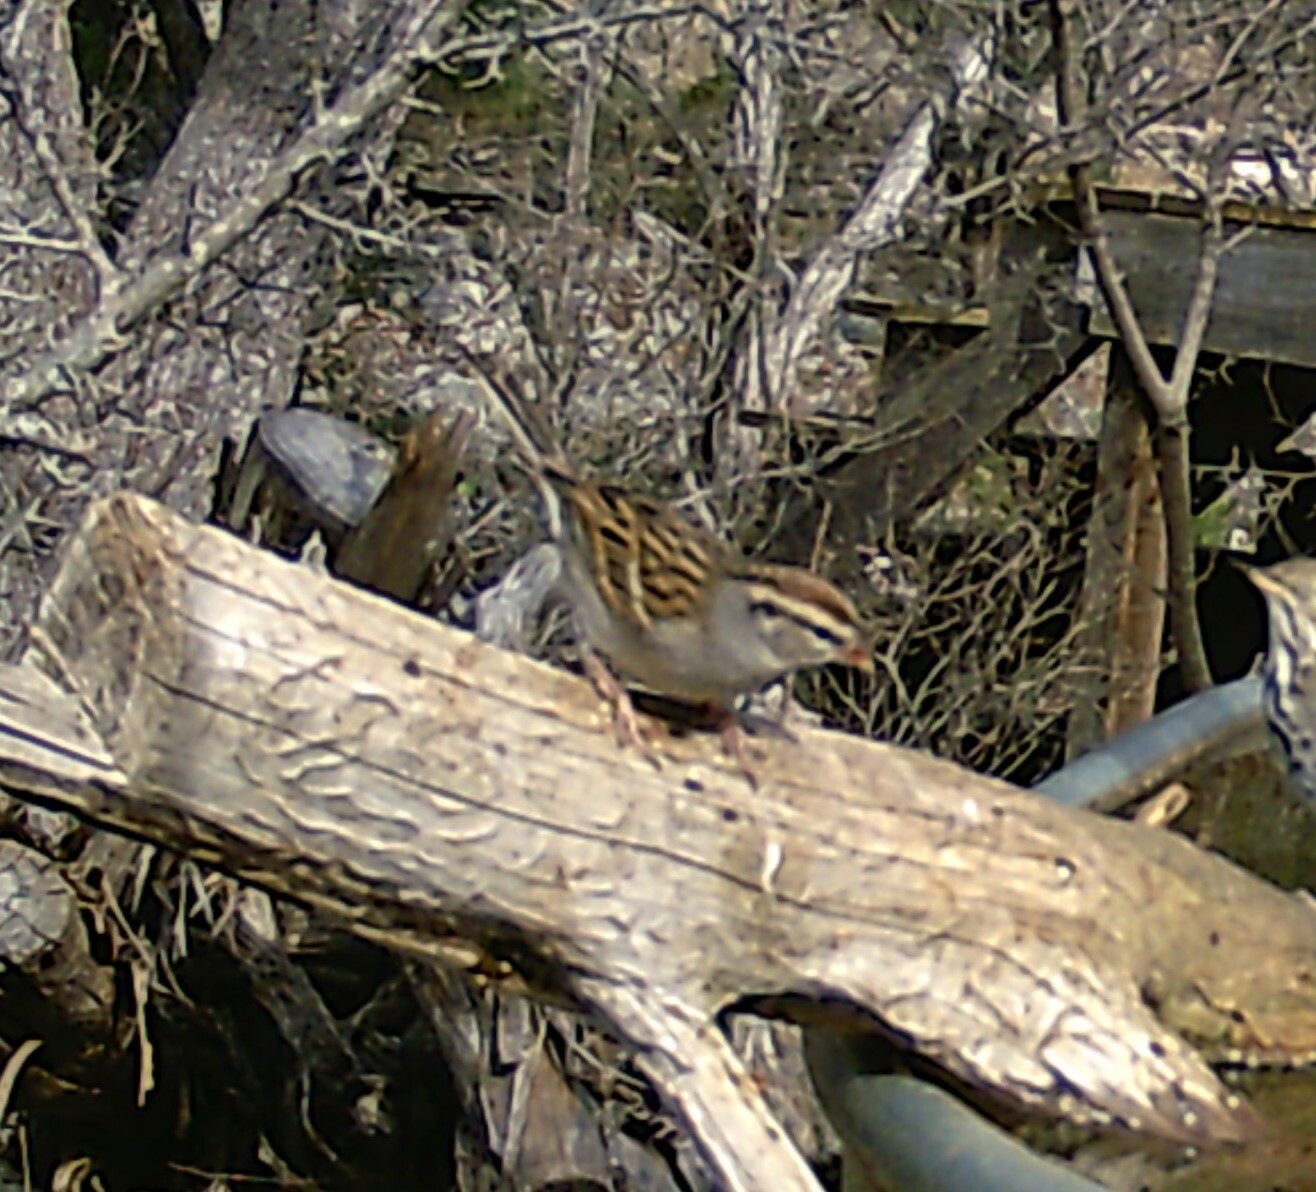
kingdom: Animalia
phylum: Chordata
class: Aves
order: Passeriformes
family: Passerellidae
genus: Spizella
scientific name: Spizella passerina
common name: Chipping sparrow
